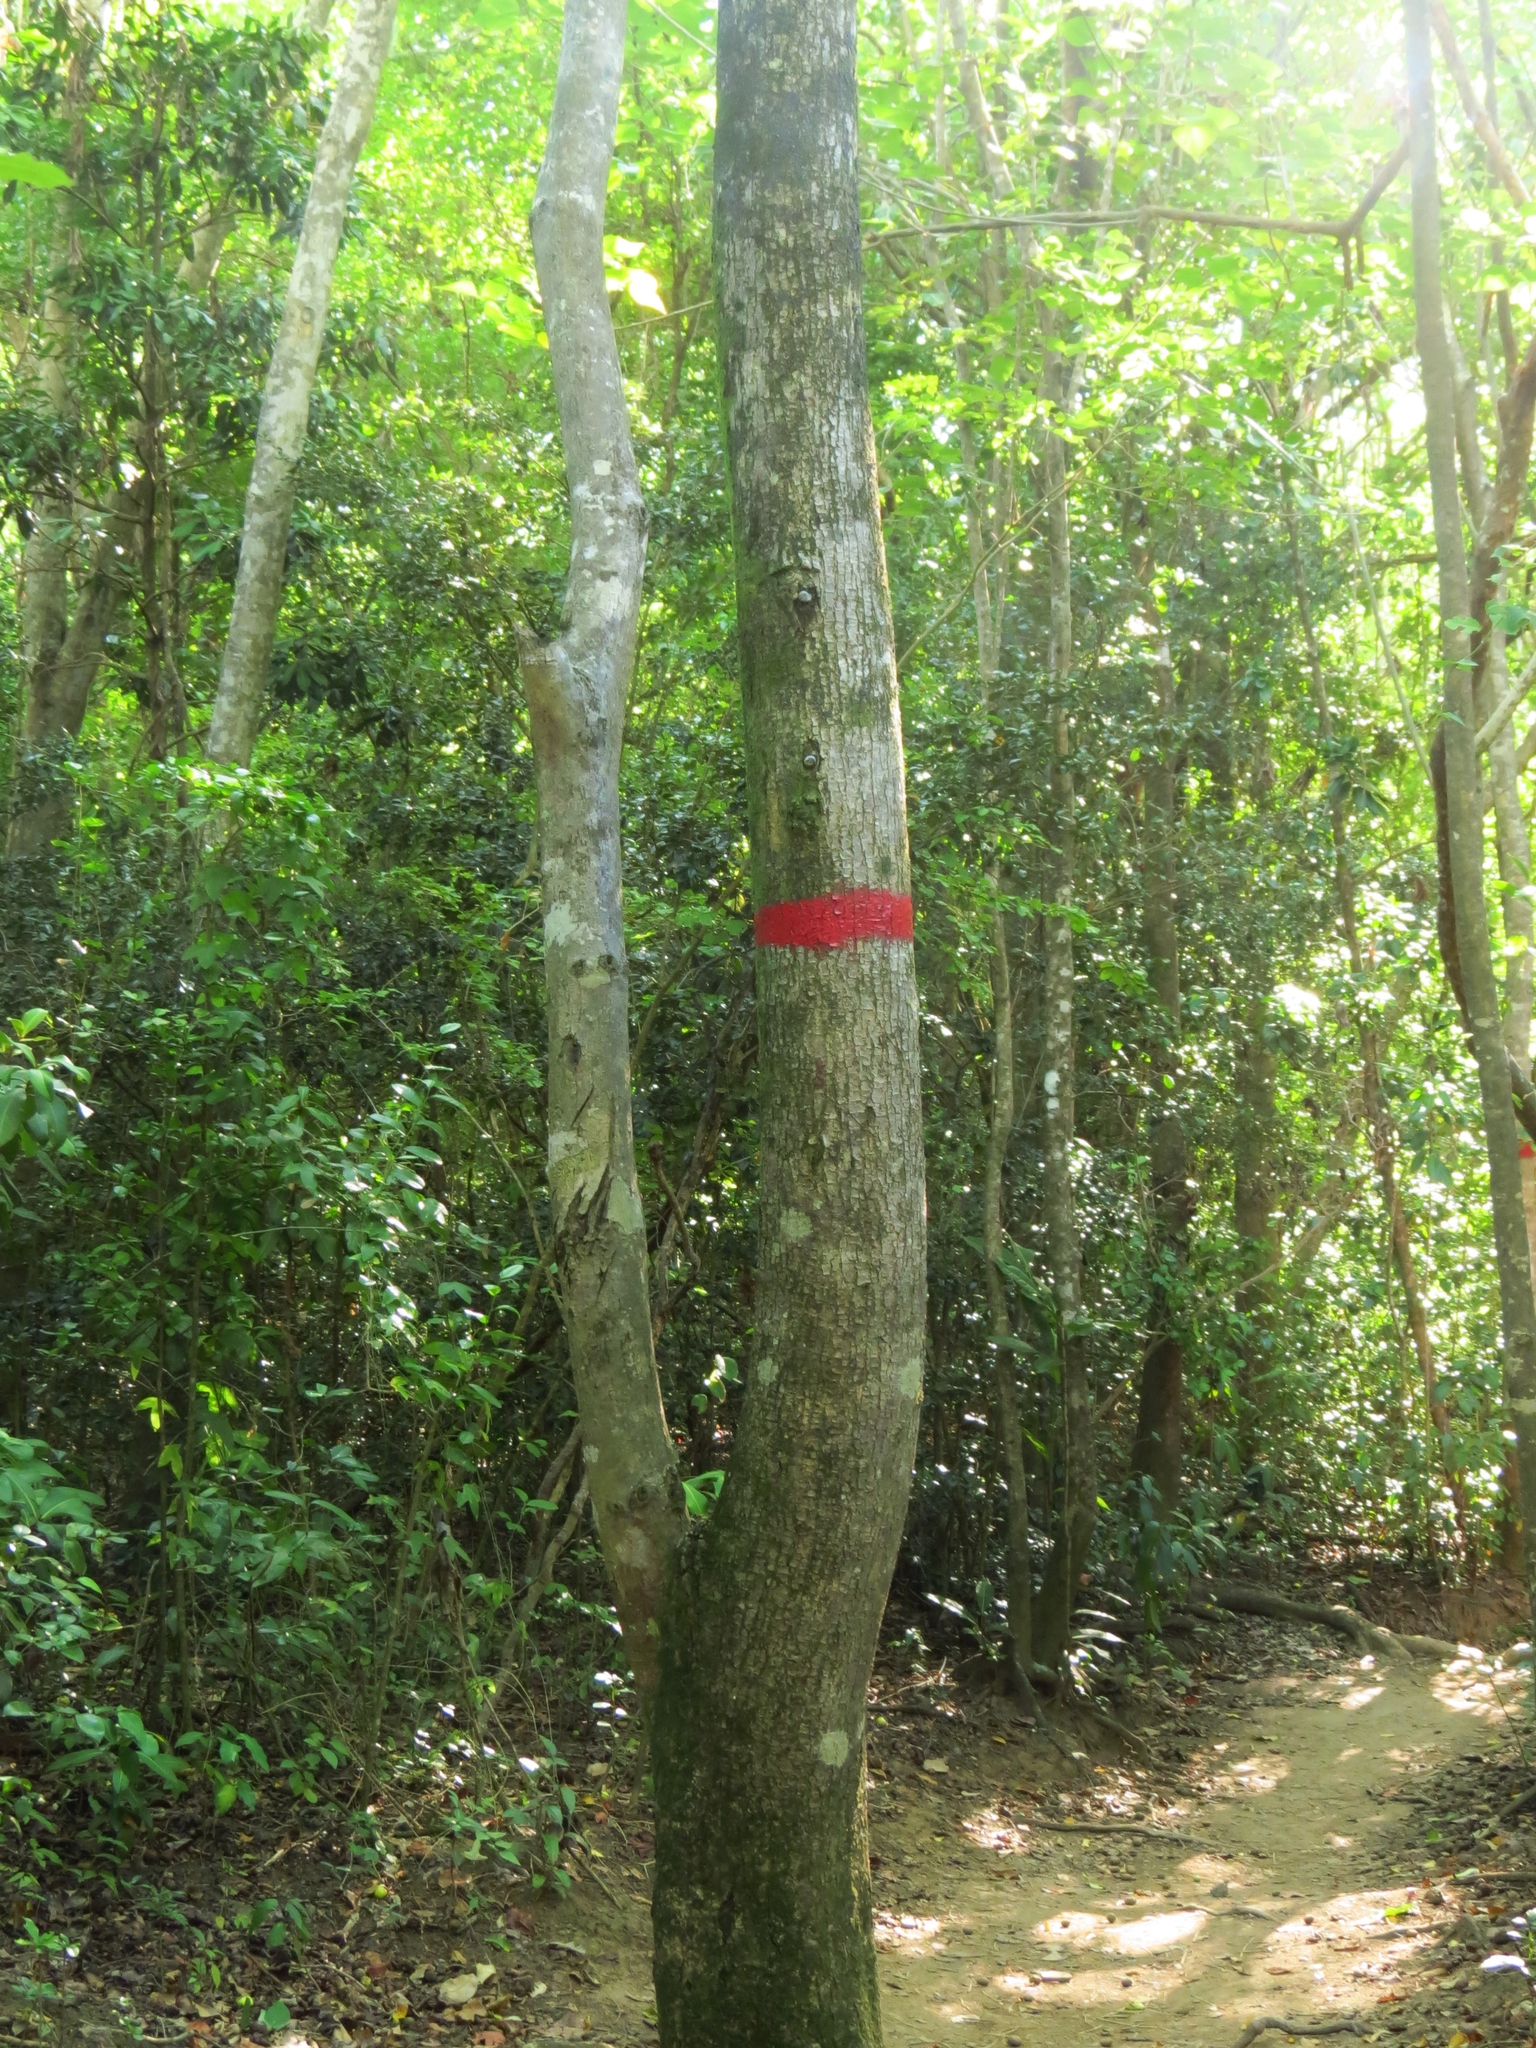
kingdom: Plantae
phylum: Tracheophyta
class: Magnoliopsida
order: Malpighiales
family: Euphorbiaceae
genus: Hippomane
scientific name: Hippomane mancinella
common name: Manchineel
